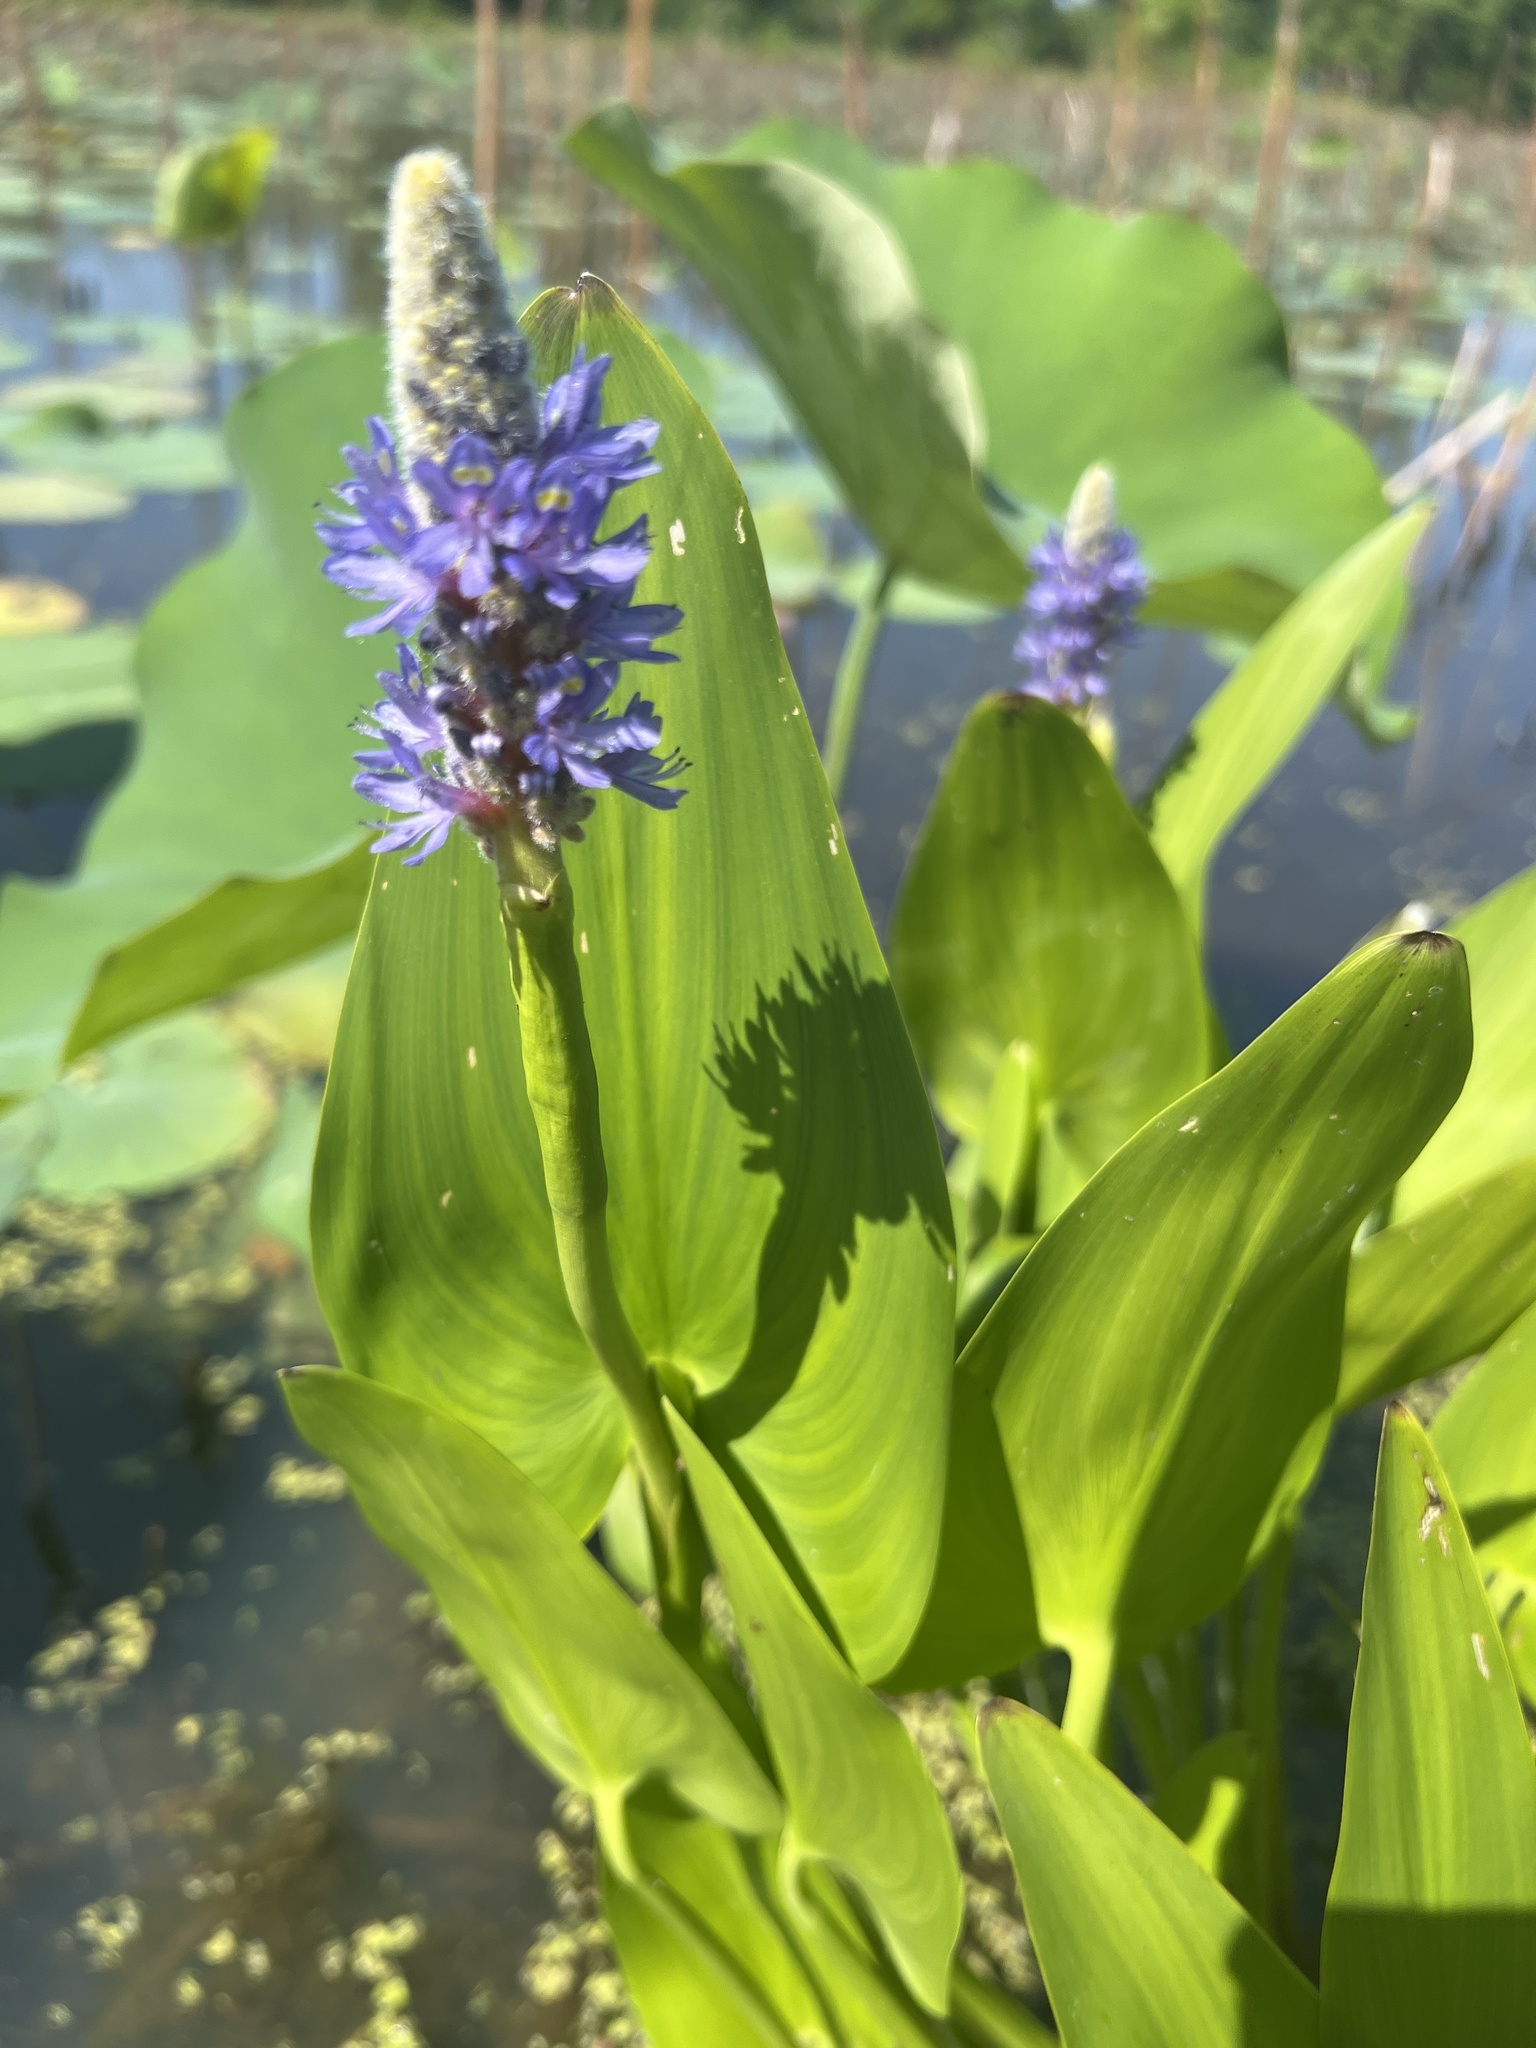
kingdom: Plantae
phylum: Tracheophyta
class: Liliopsida
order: Commelinales
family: Pontederiaceae
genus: Pontederia
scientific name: Pontederia cordata
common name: Pickerelweed
